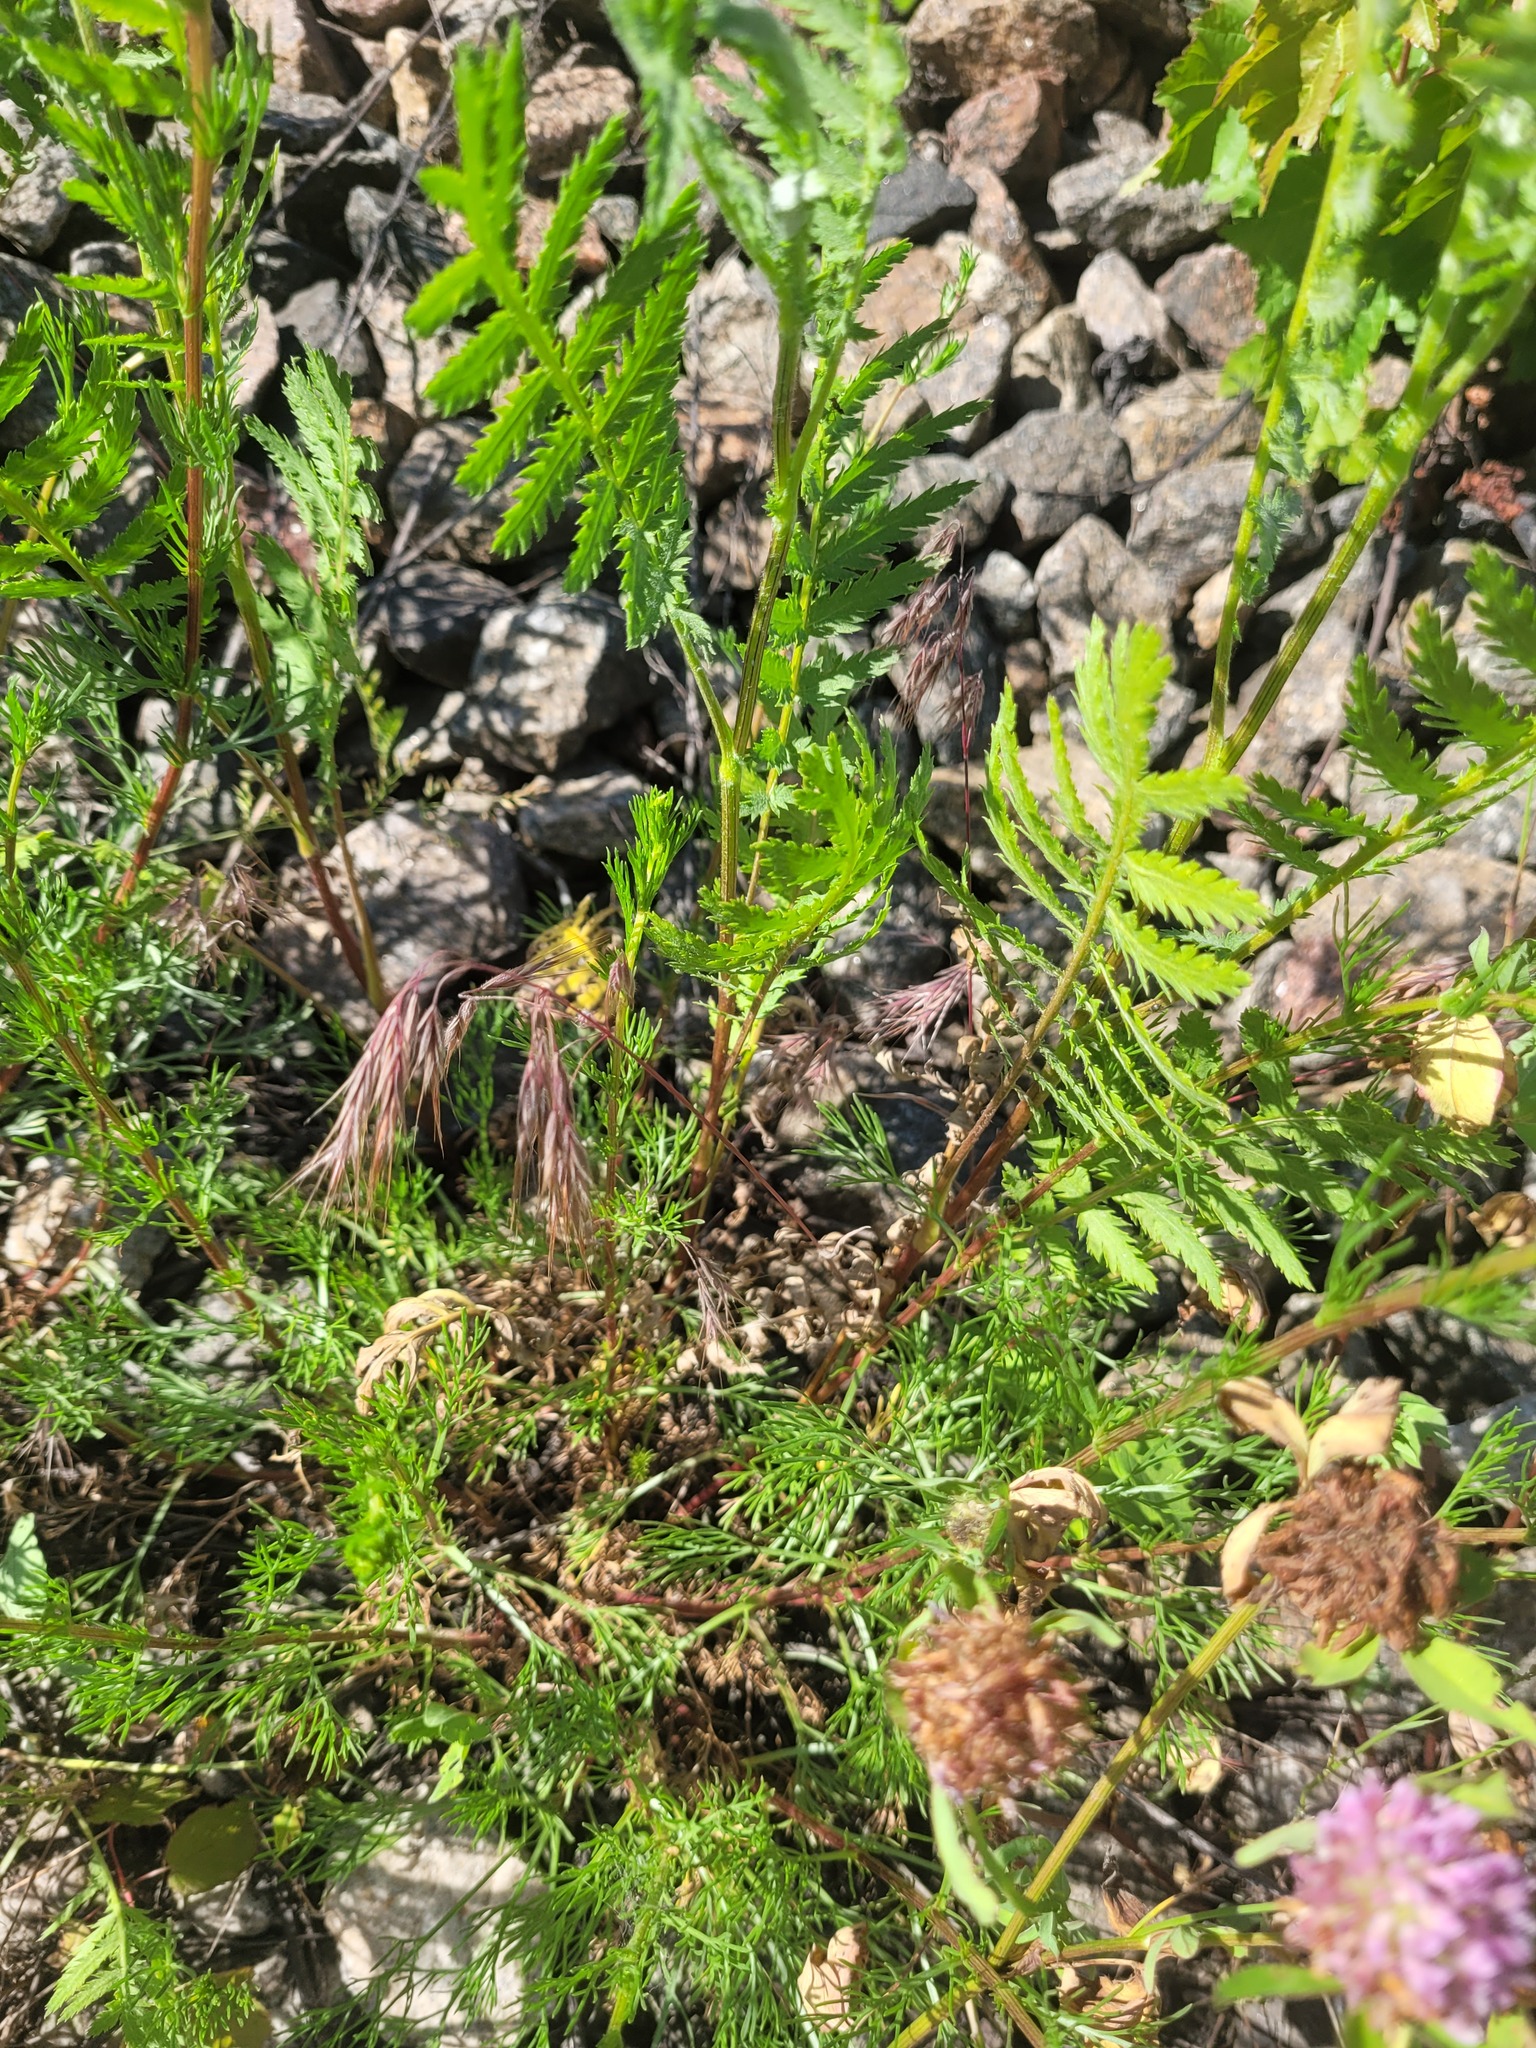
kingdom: Plantae
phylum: Tracheophyta
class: Liliopsida
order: Poales
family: Poaceae
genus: Bromus
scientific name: Bromus tectorum
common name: Cheatgrass
